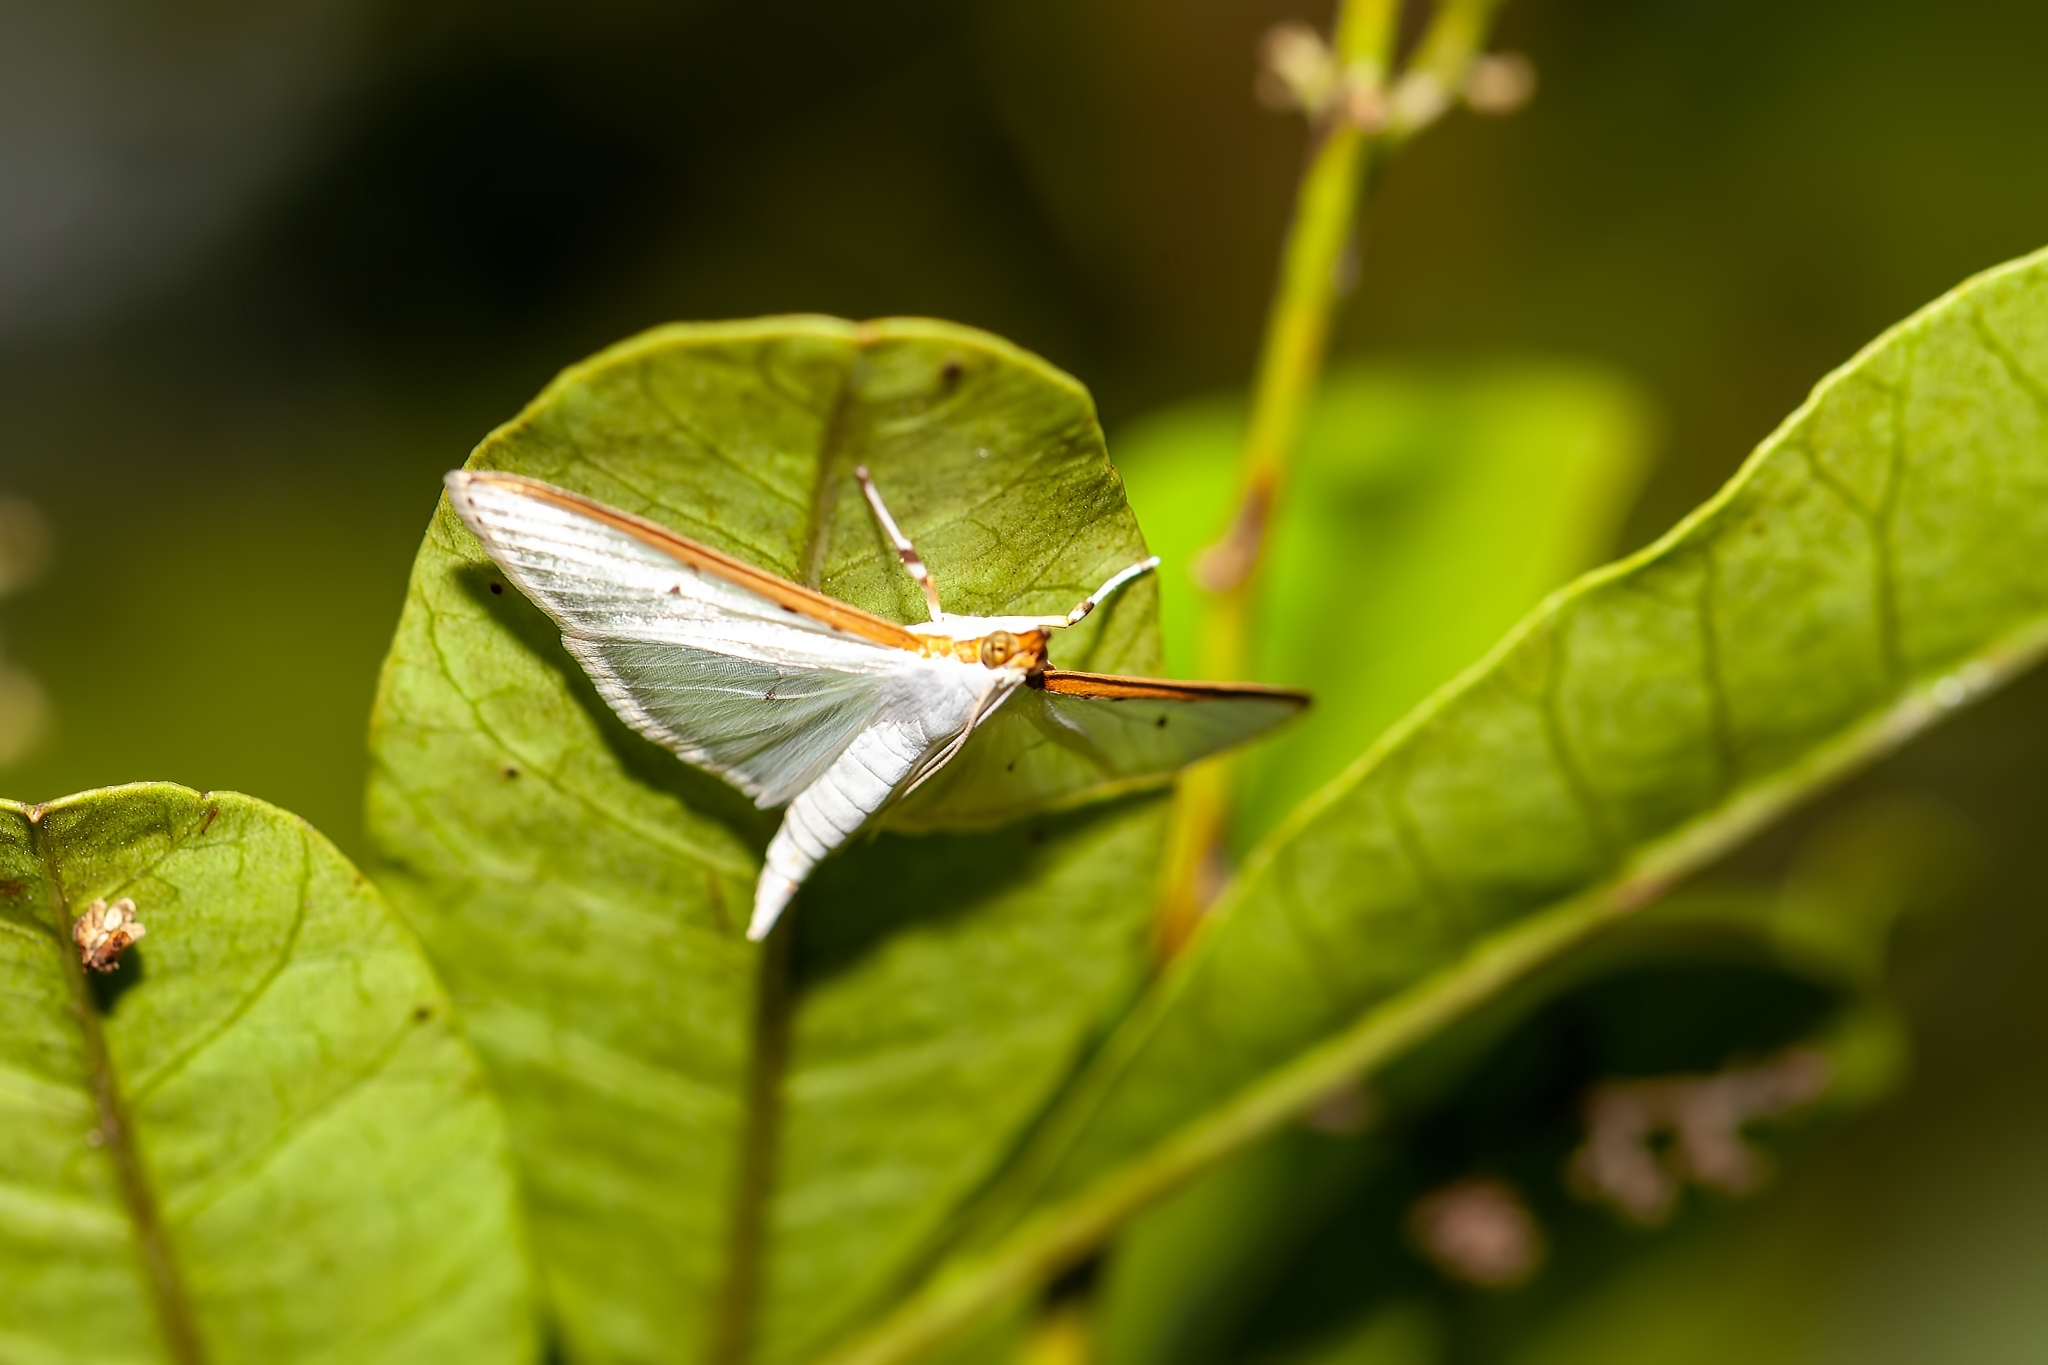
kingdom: Animalia
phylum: Arthropoda
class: Insecta
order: Lepidoptera
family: Crambidae
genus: Palpita
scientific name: Palpita quadristigmalis
